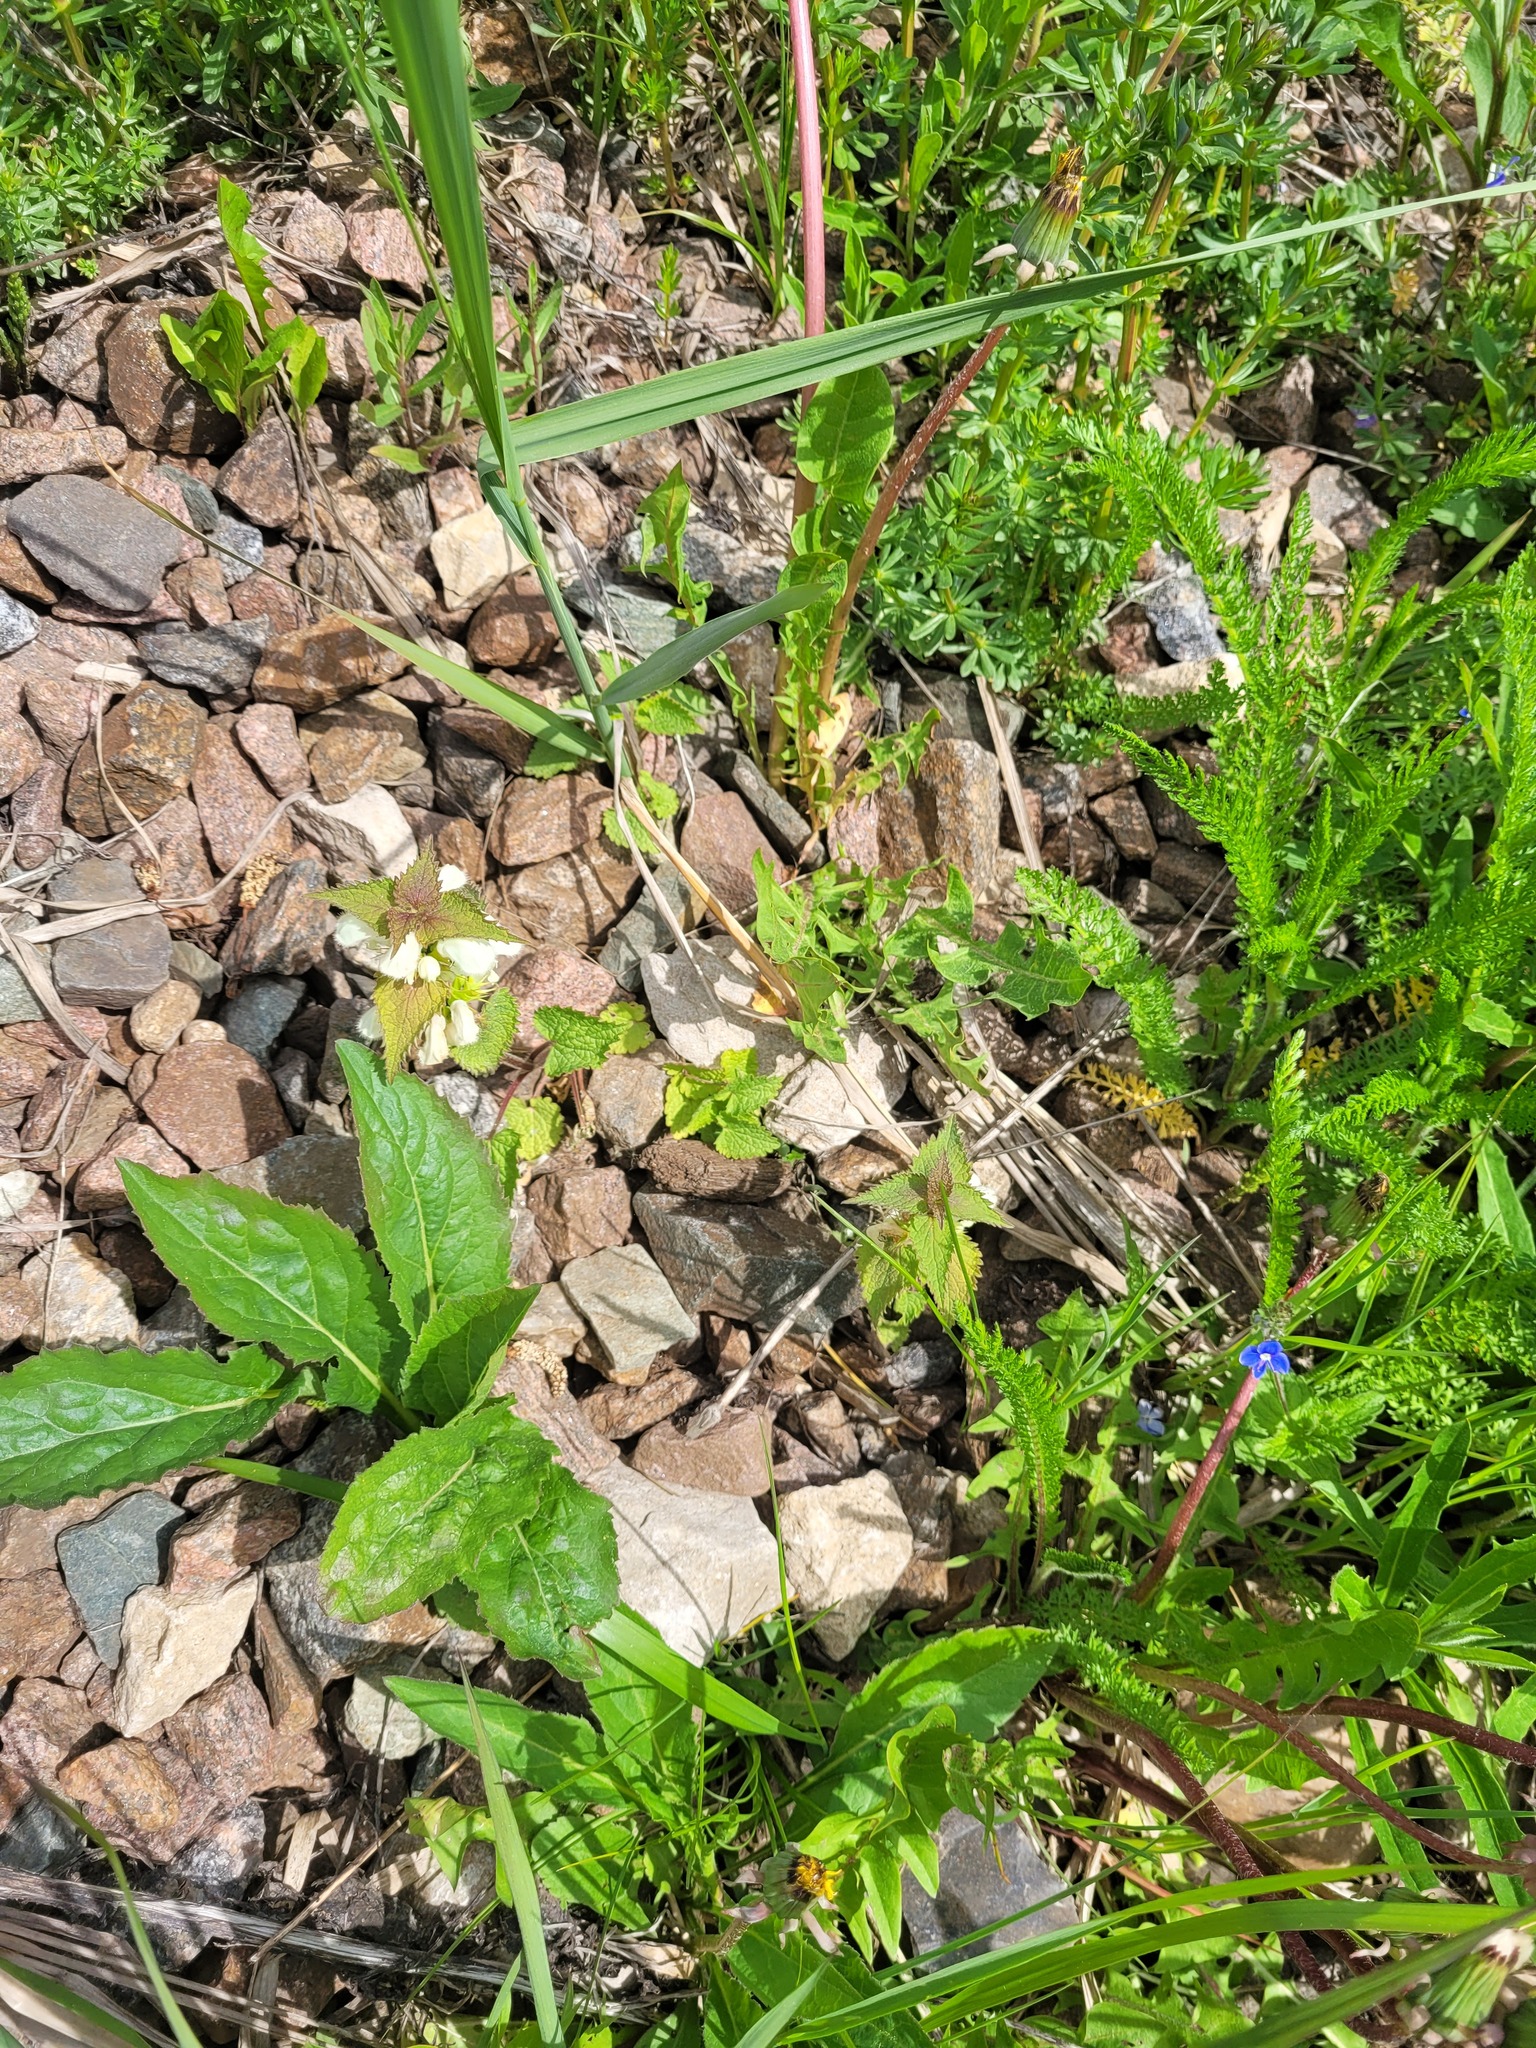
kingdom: Plantae
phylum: Tracheophyta
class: Magnoliopsida
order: Lamiales
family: Lamiaceae
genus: Lamium
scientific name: Lamium album
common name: White dead-nettle
